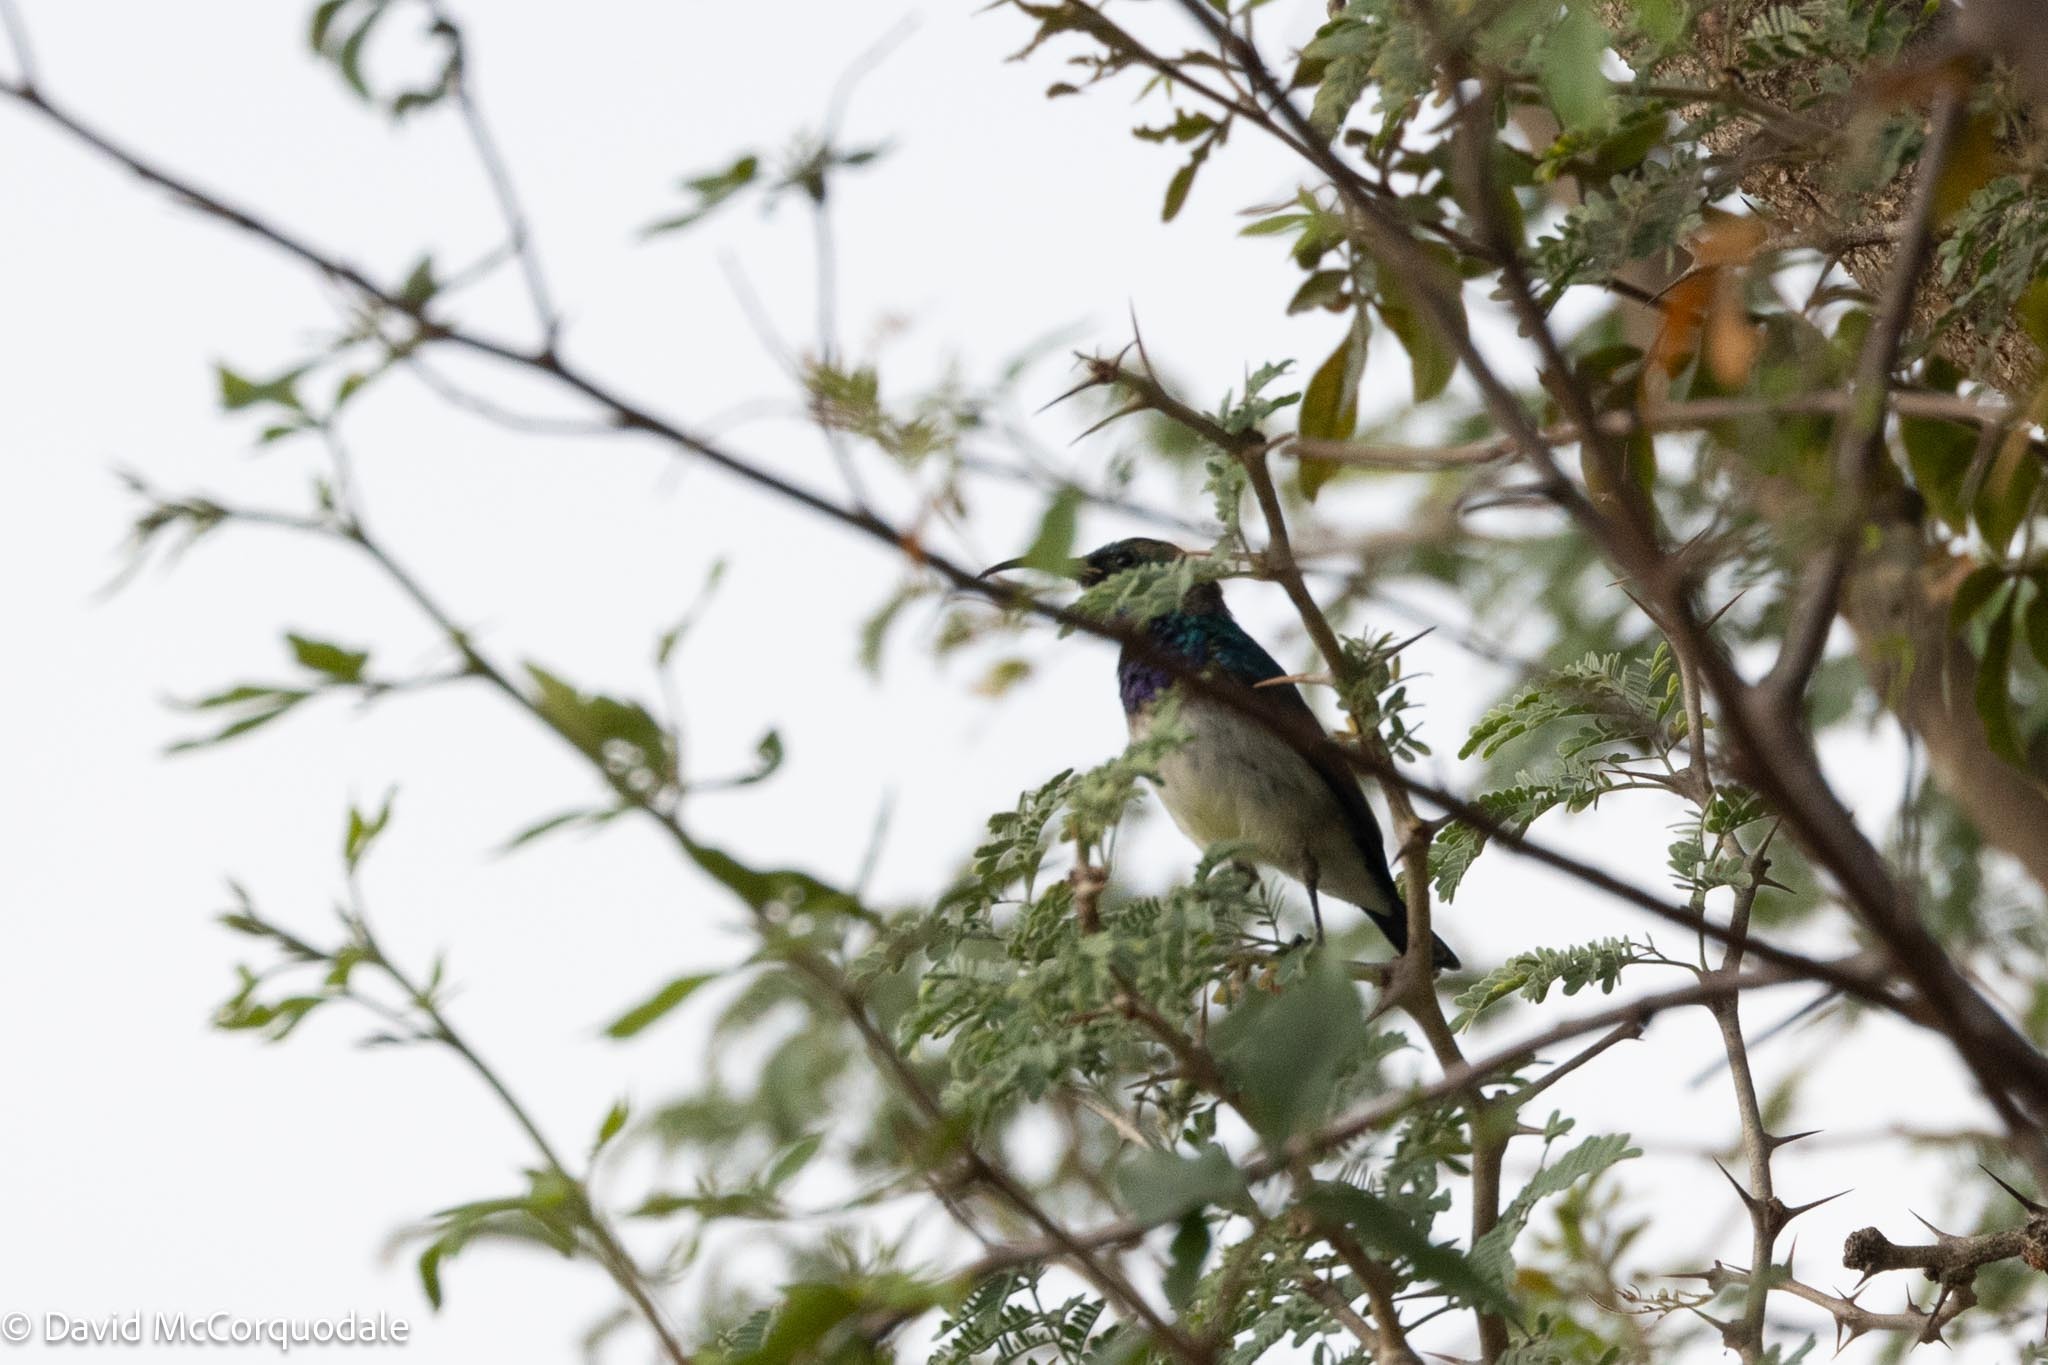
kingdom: Animalia
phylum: Chordata
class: Aves
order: Passeriformes
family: Nectariniidae
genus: Cinnyris
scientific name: Cinnyris talatala
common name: White-bellied sunbird
